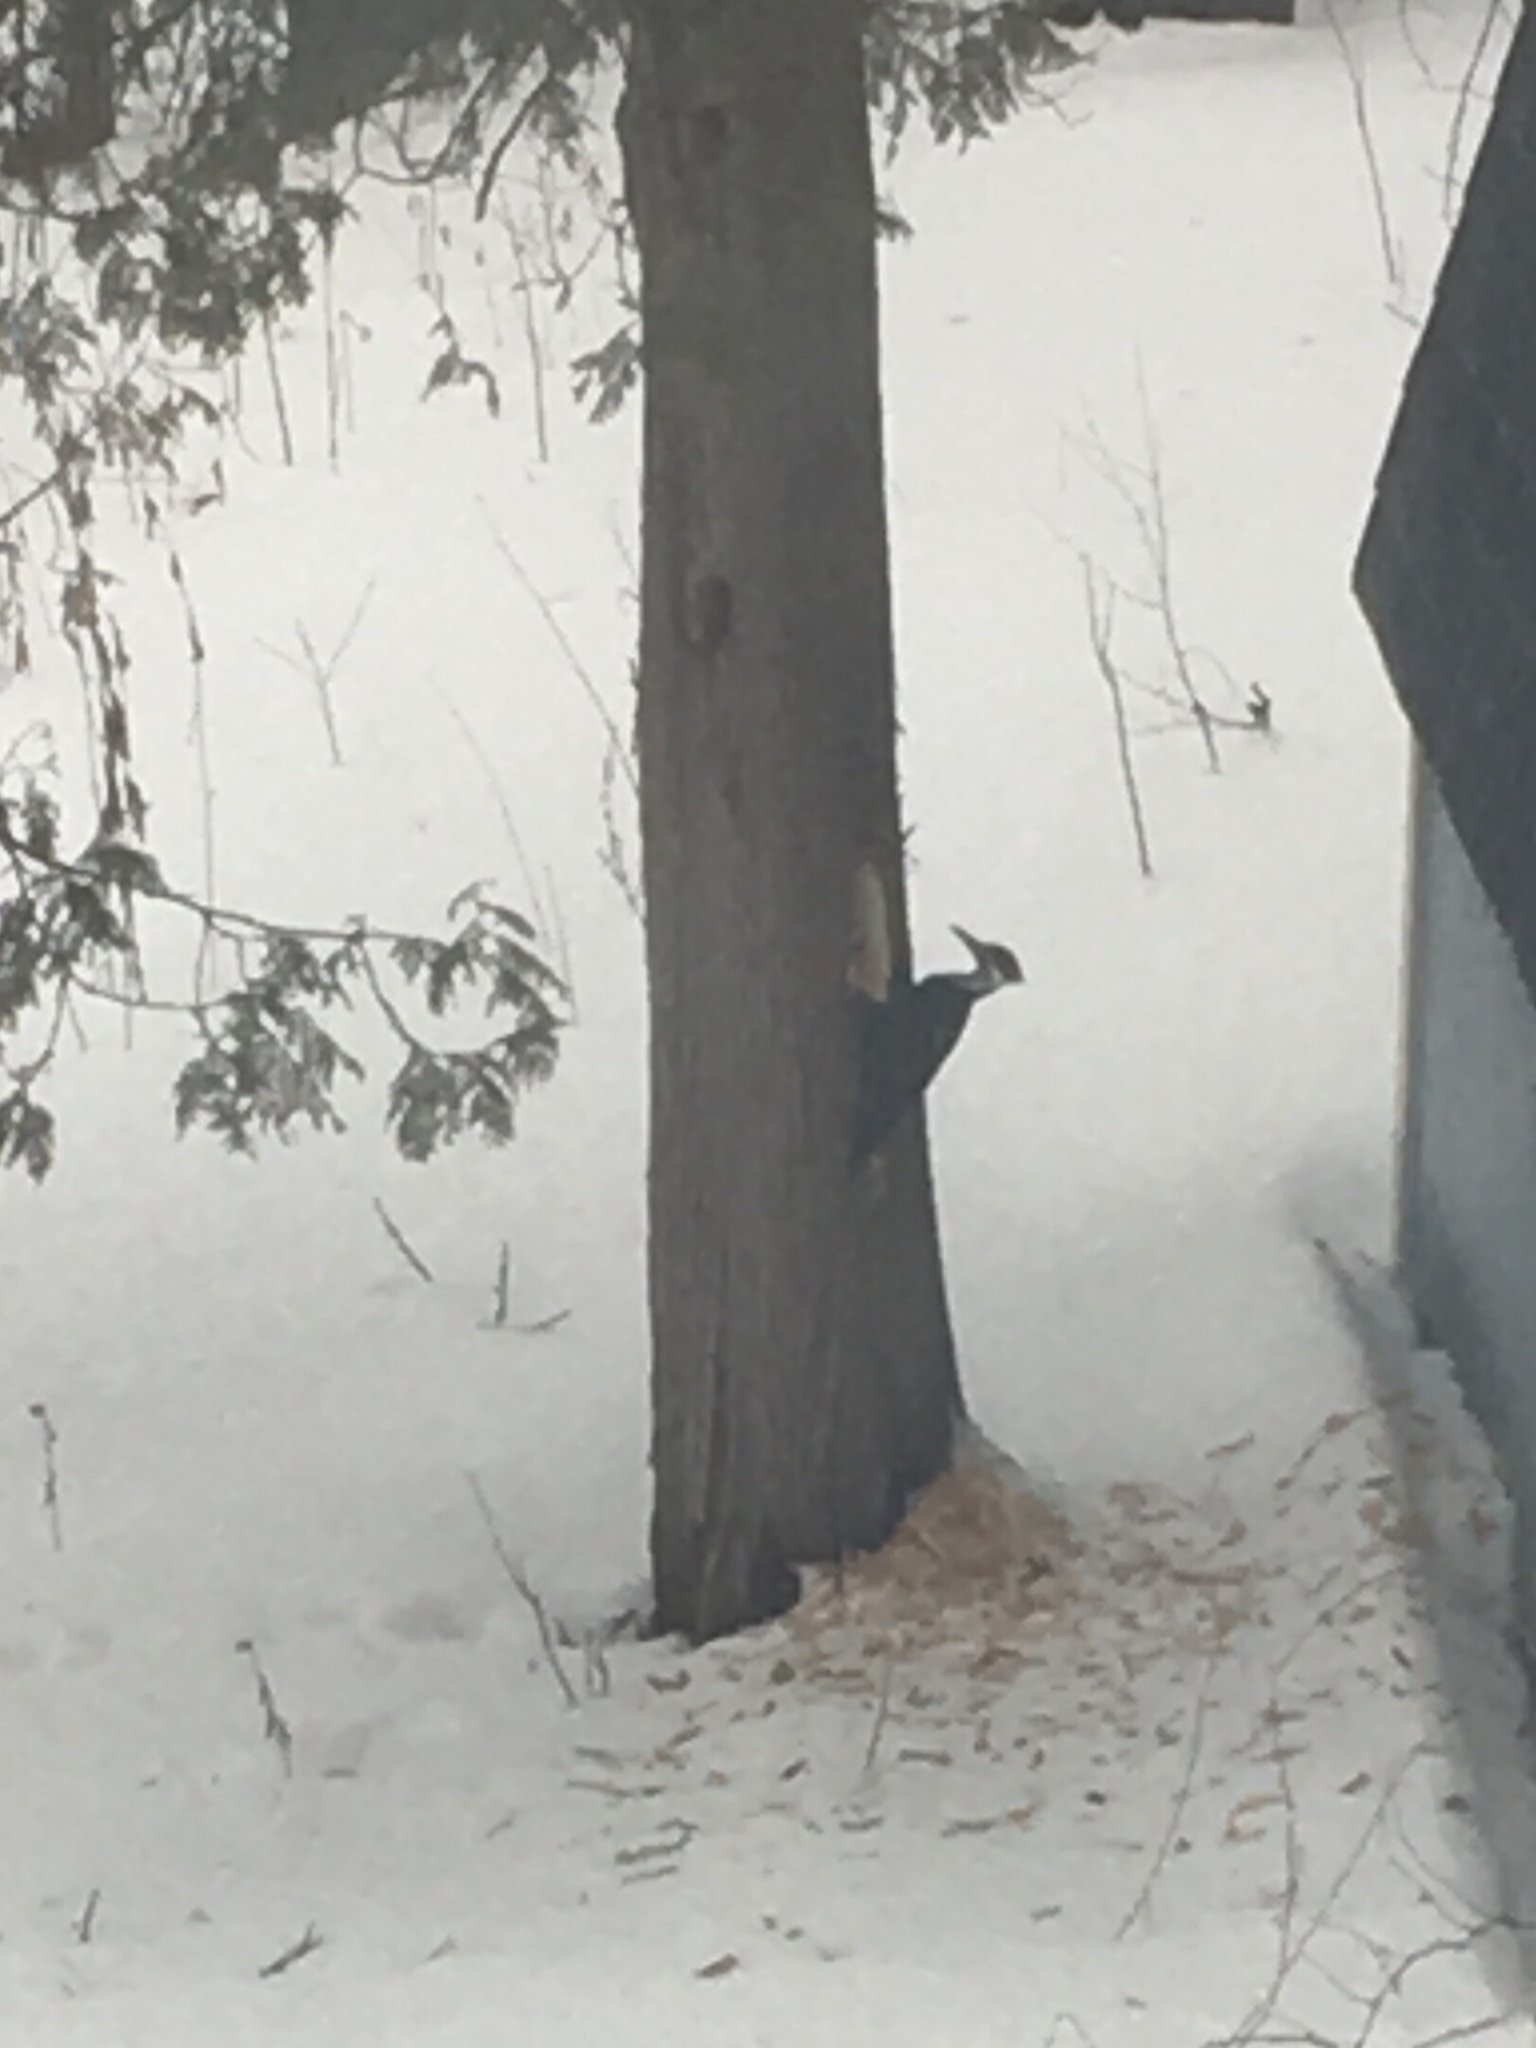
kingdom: Animalia
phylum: Chordata
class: Aves
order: Piciformes
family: Picidae
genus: Dryocopus
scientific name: Dryocopus pileatus
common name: Pileated woodpecker
